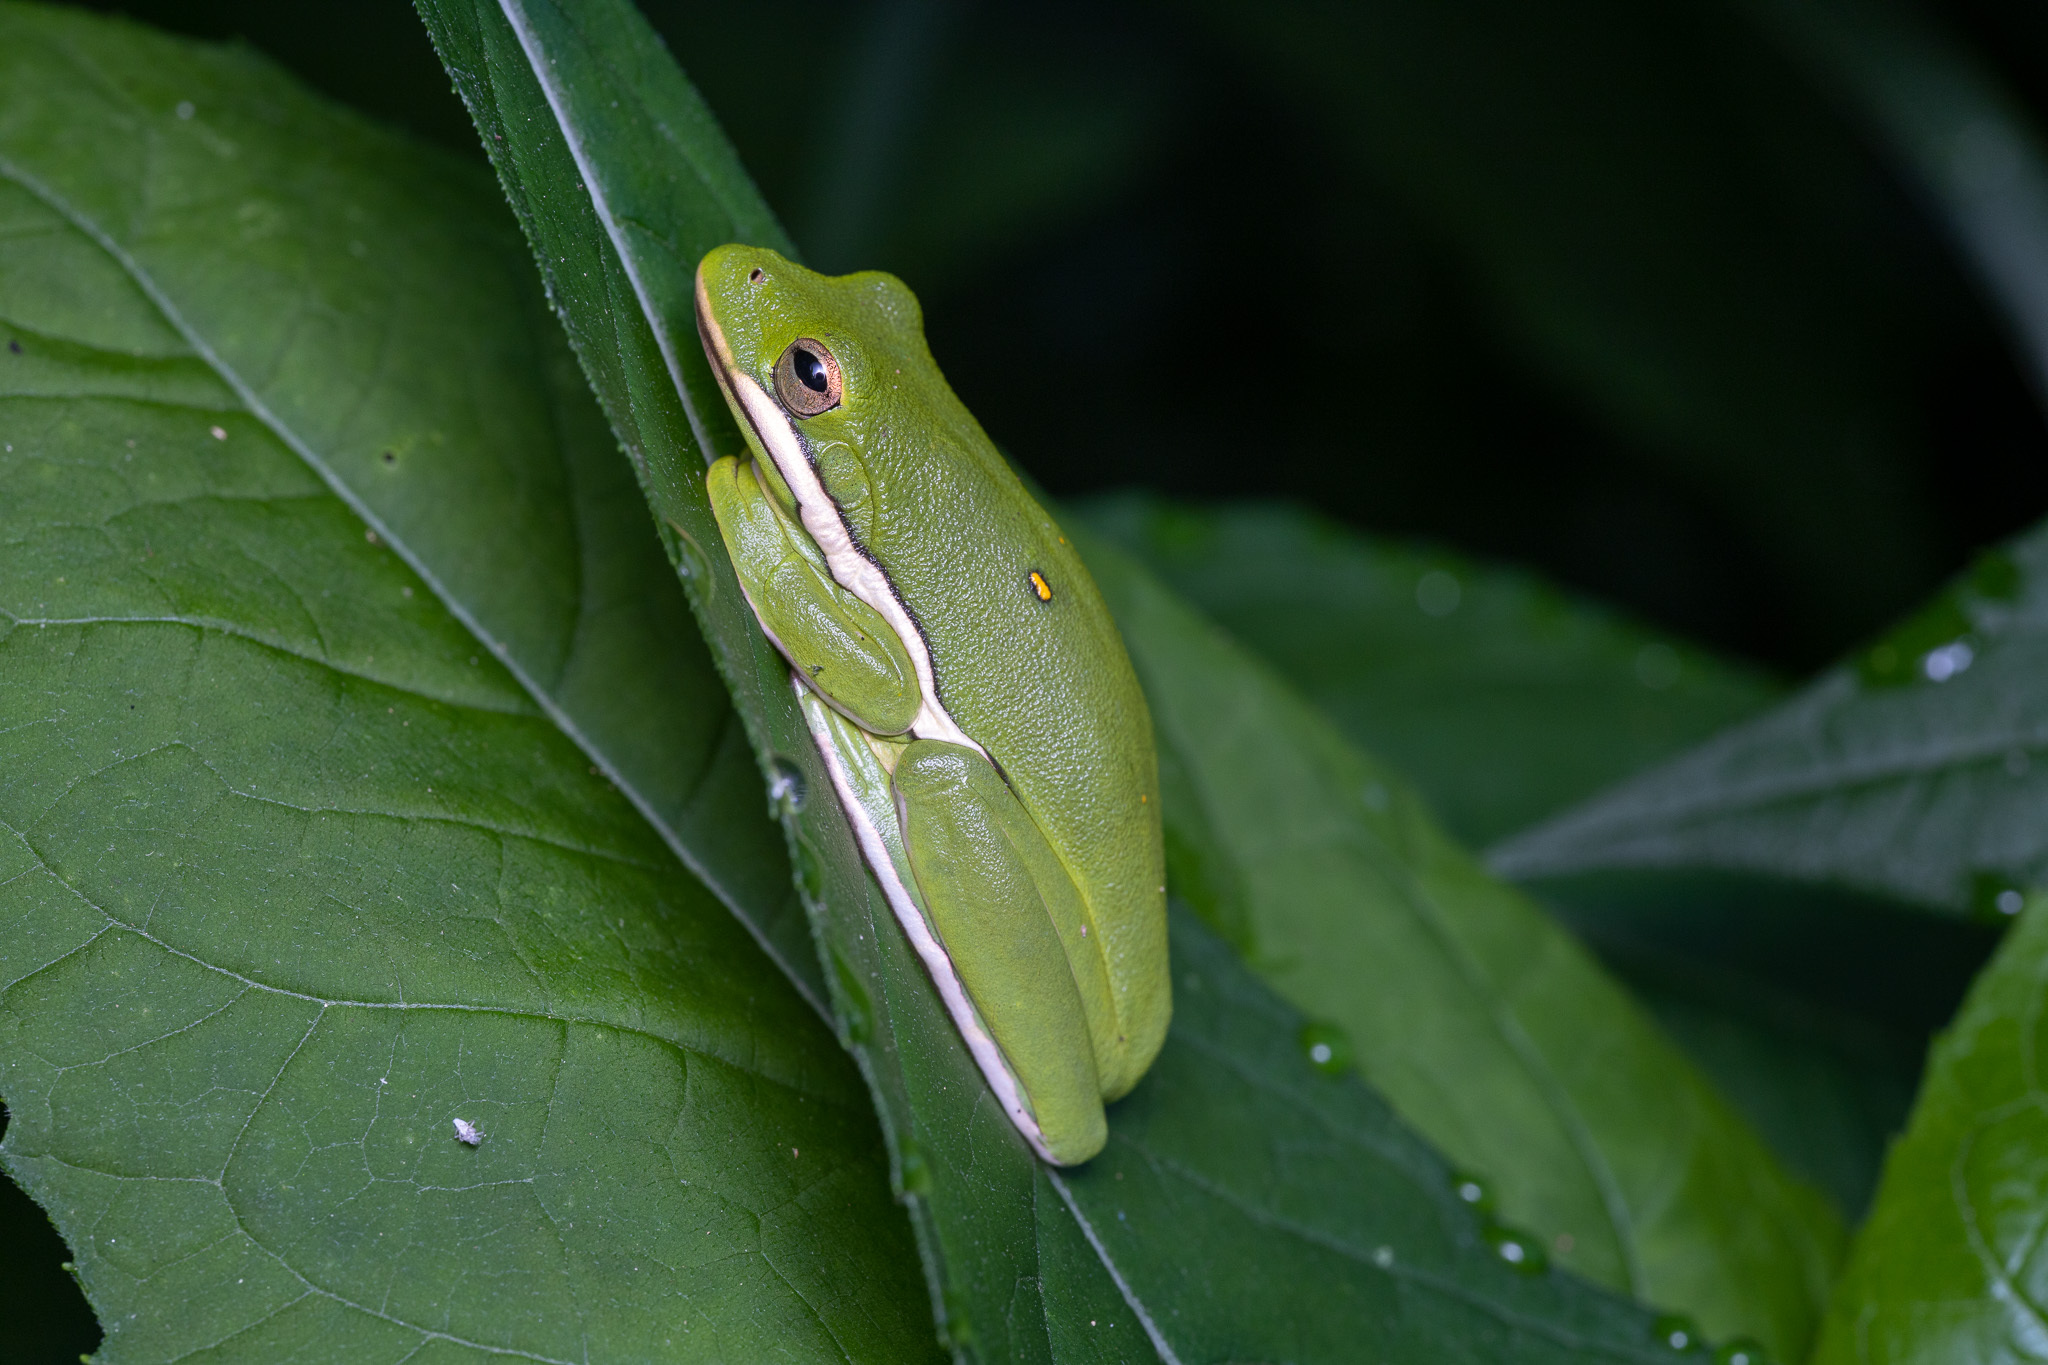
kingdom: Animalia
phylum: Chordata
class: Amphibia
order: Anura
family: Hylidae
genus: Dryophytes
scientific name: Dryophytes cinereus
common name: Green treefrog
